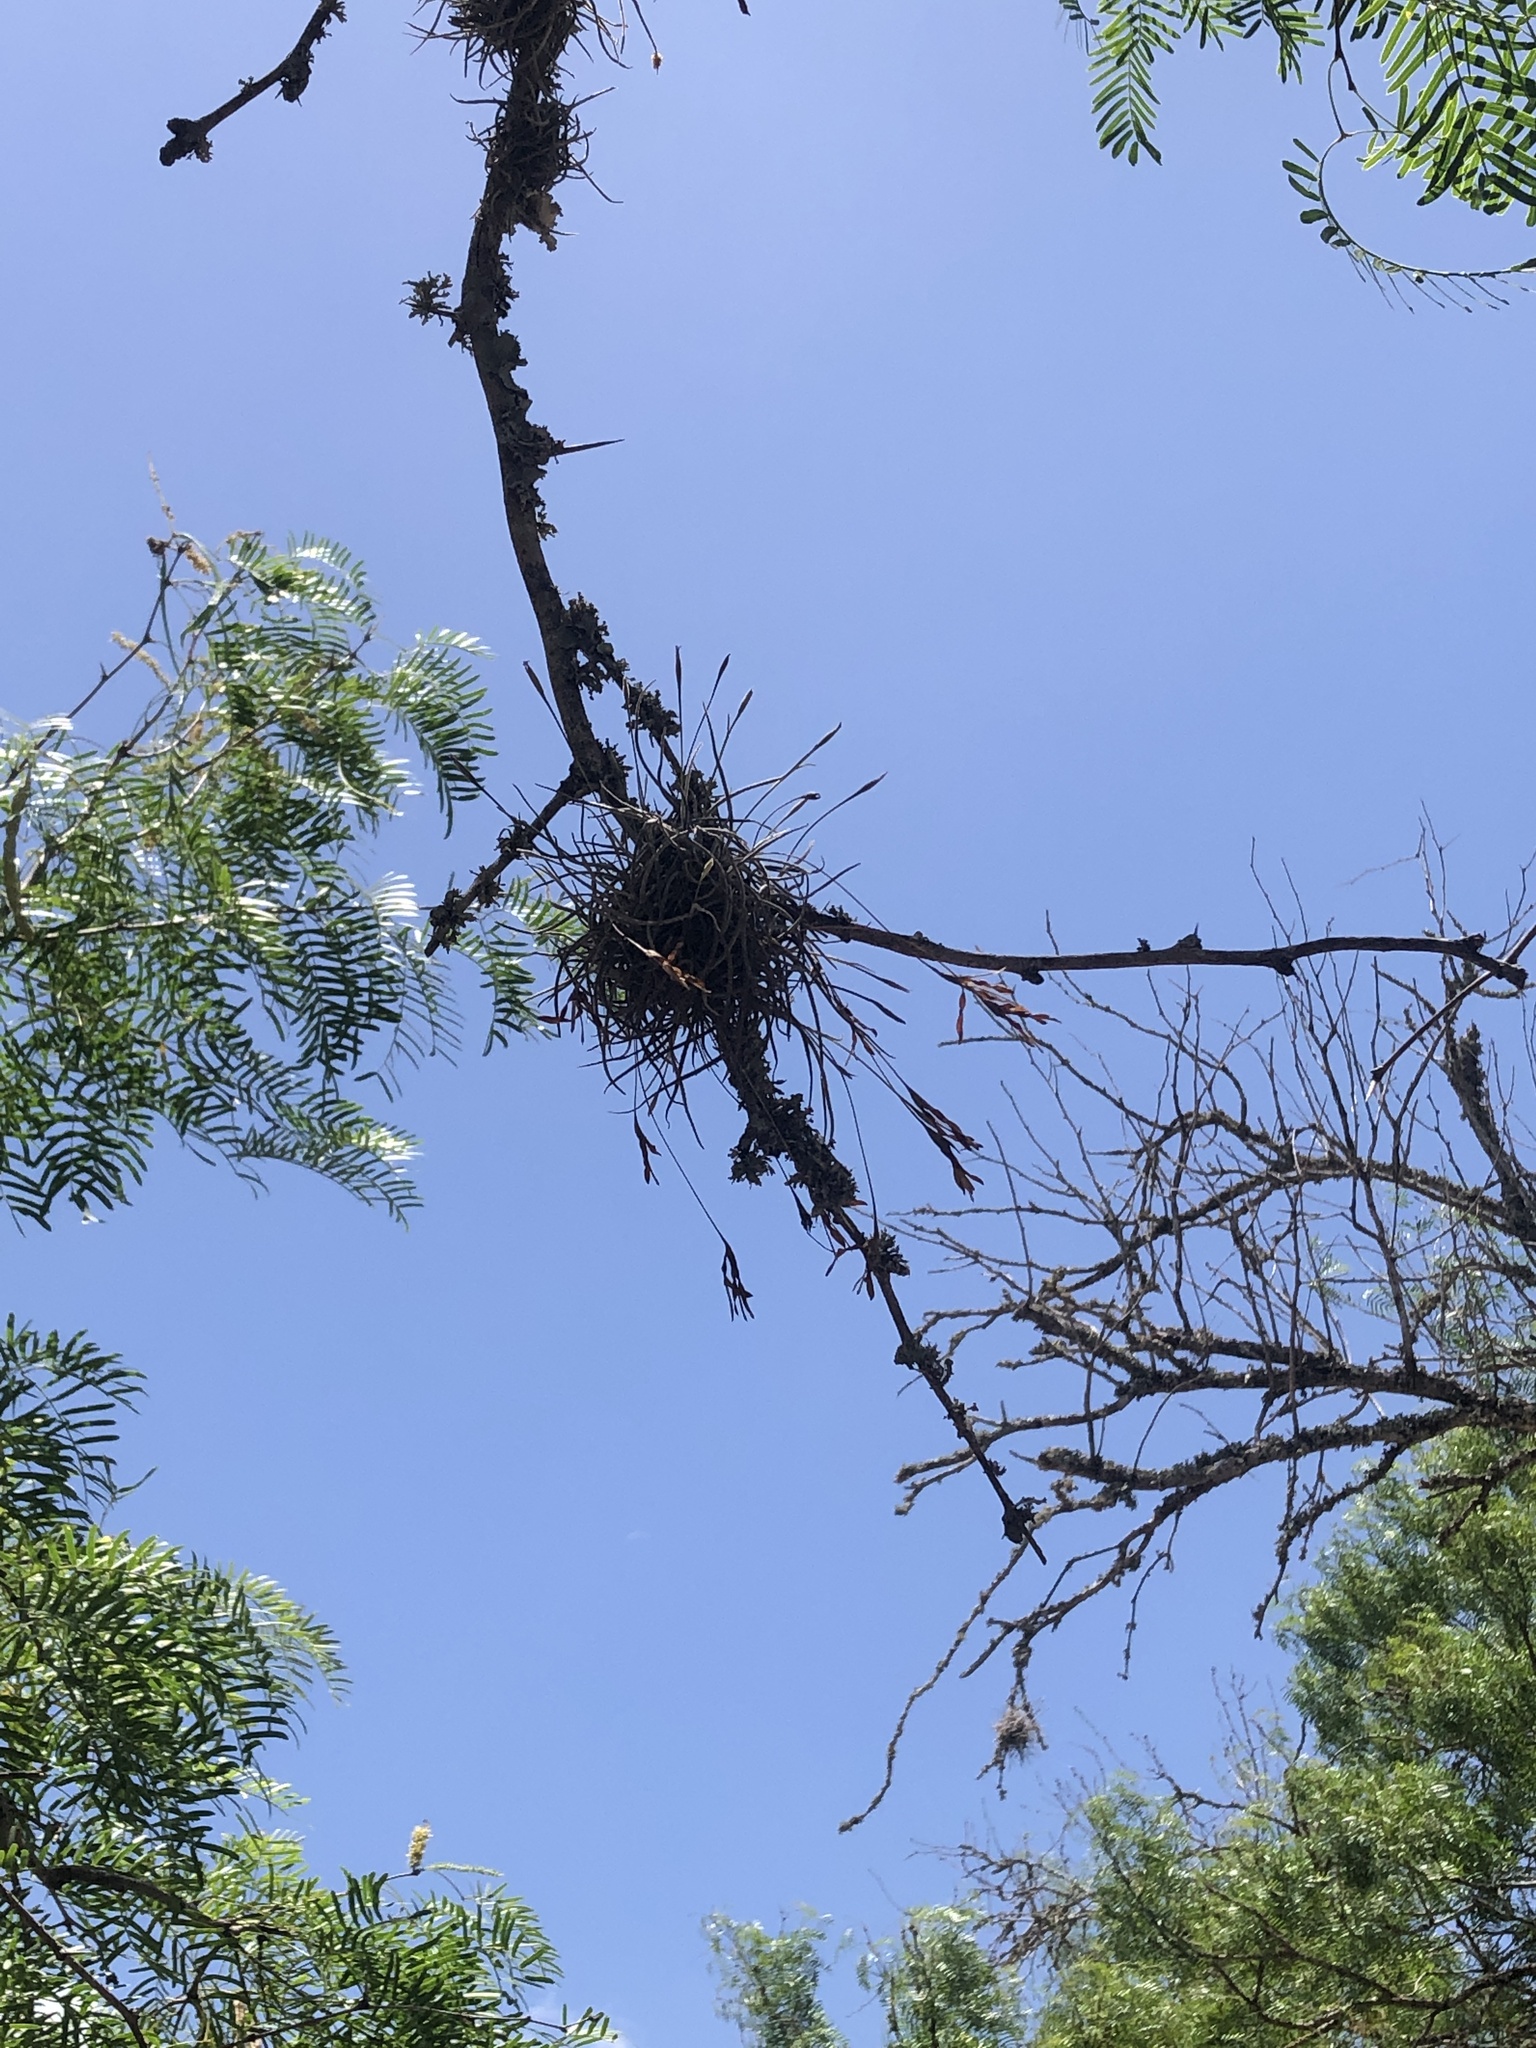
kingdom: Plantae
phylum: Tracheophyta
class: Liliopsida
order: Poales
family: Bromeliaceae
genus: Tillandsia
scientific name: Tillandsia recurvata
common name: Small ballmoss
